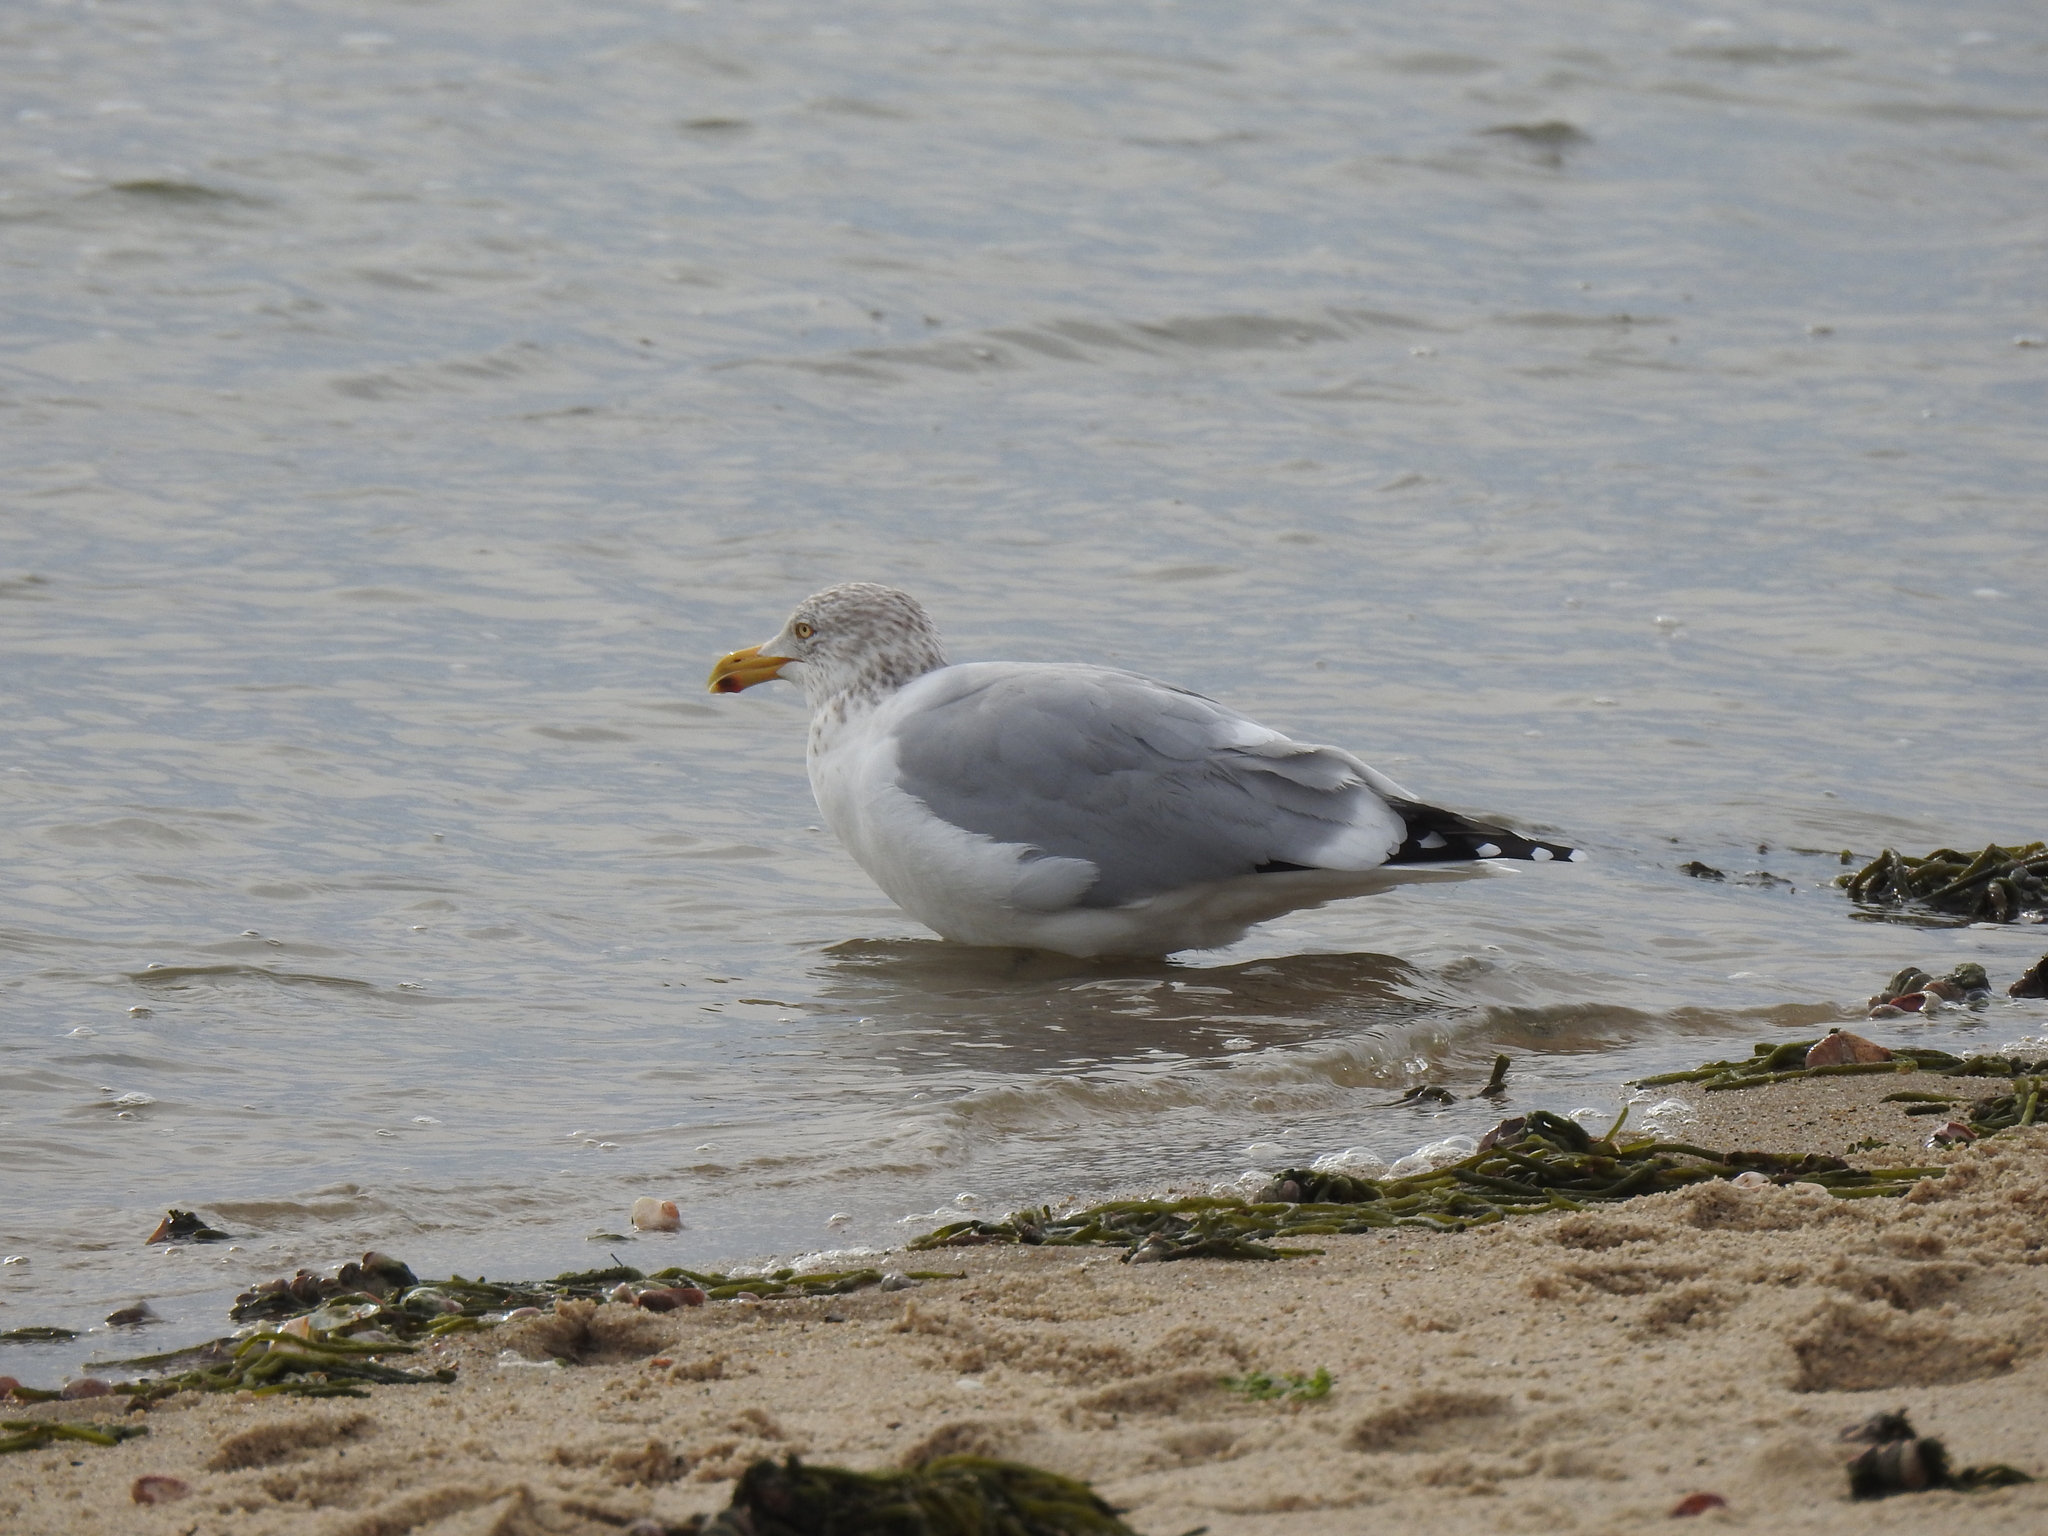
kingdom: Animalia
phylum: Chordata
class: Aves
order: Charadriiformes
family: Laridae
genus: Larus
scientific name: Larus argentatus
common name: Herring gull
